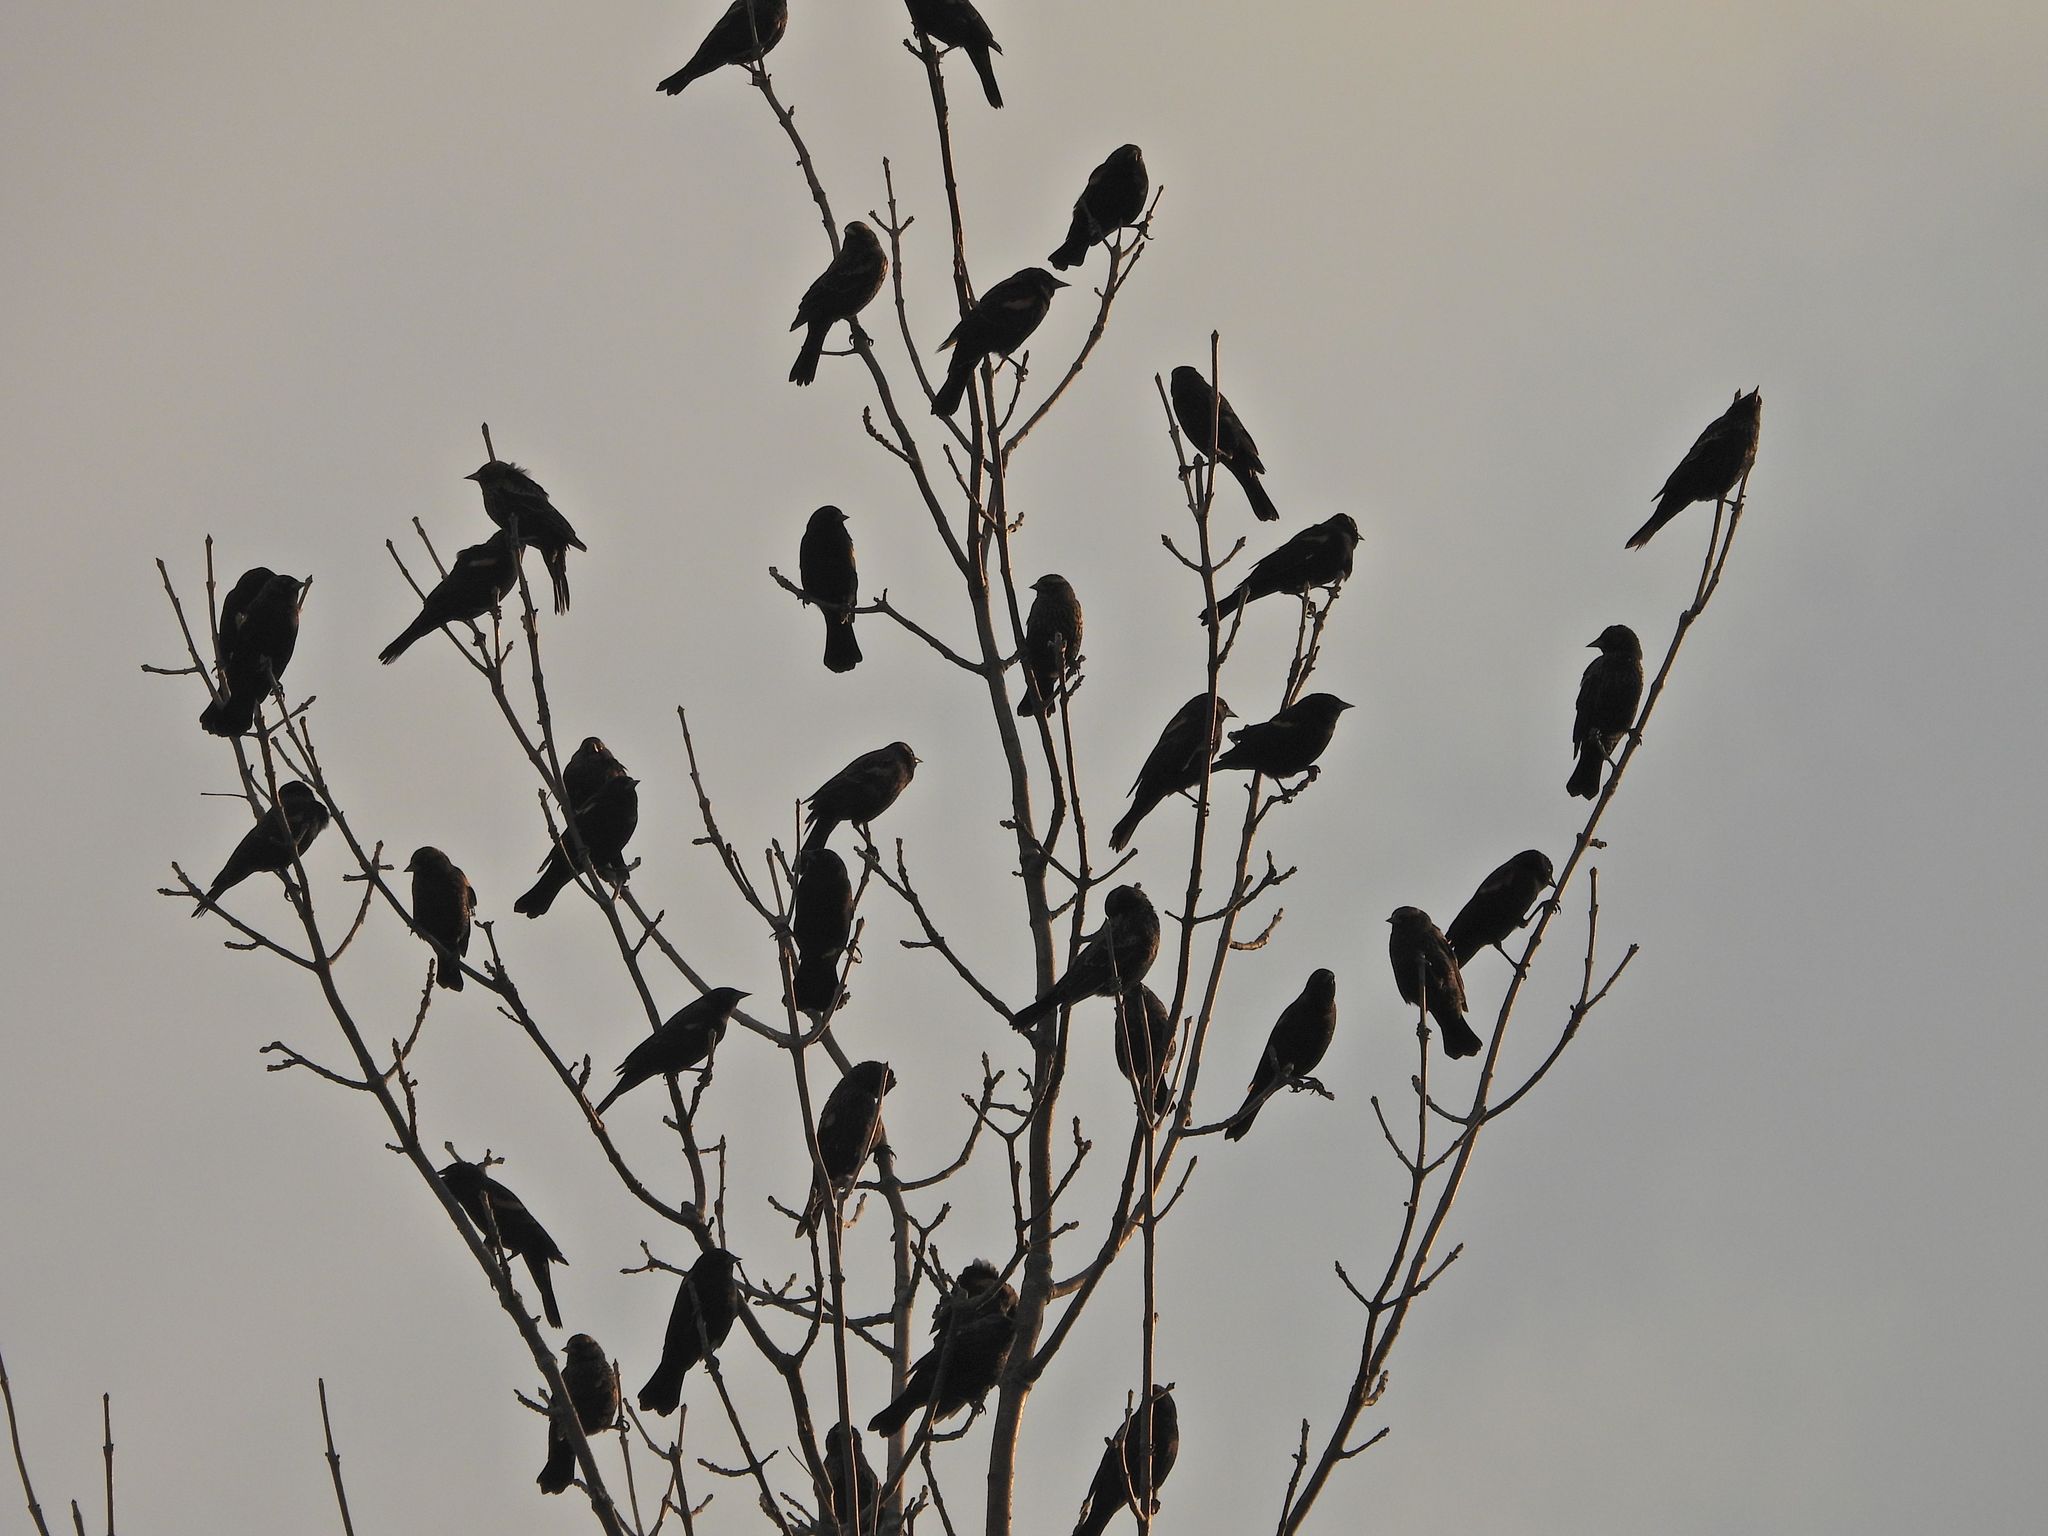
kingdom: Animalia
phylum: Chordata
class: Aves
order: Passeriformes
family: Icteridae
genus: Agelaius
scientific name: Agelaius phoeniceus
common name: Red-winged blackbird
